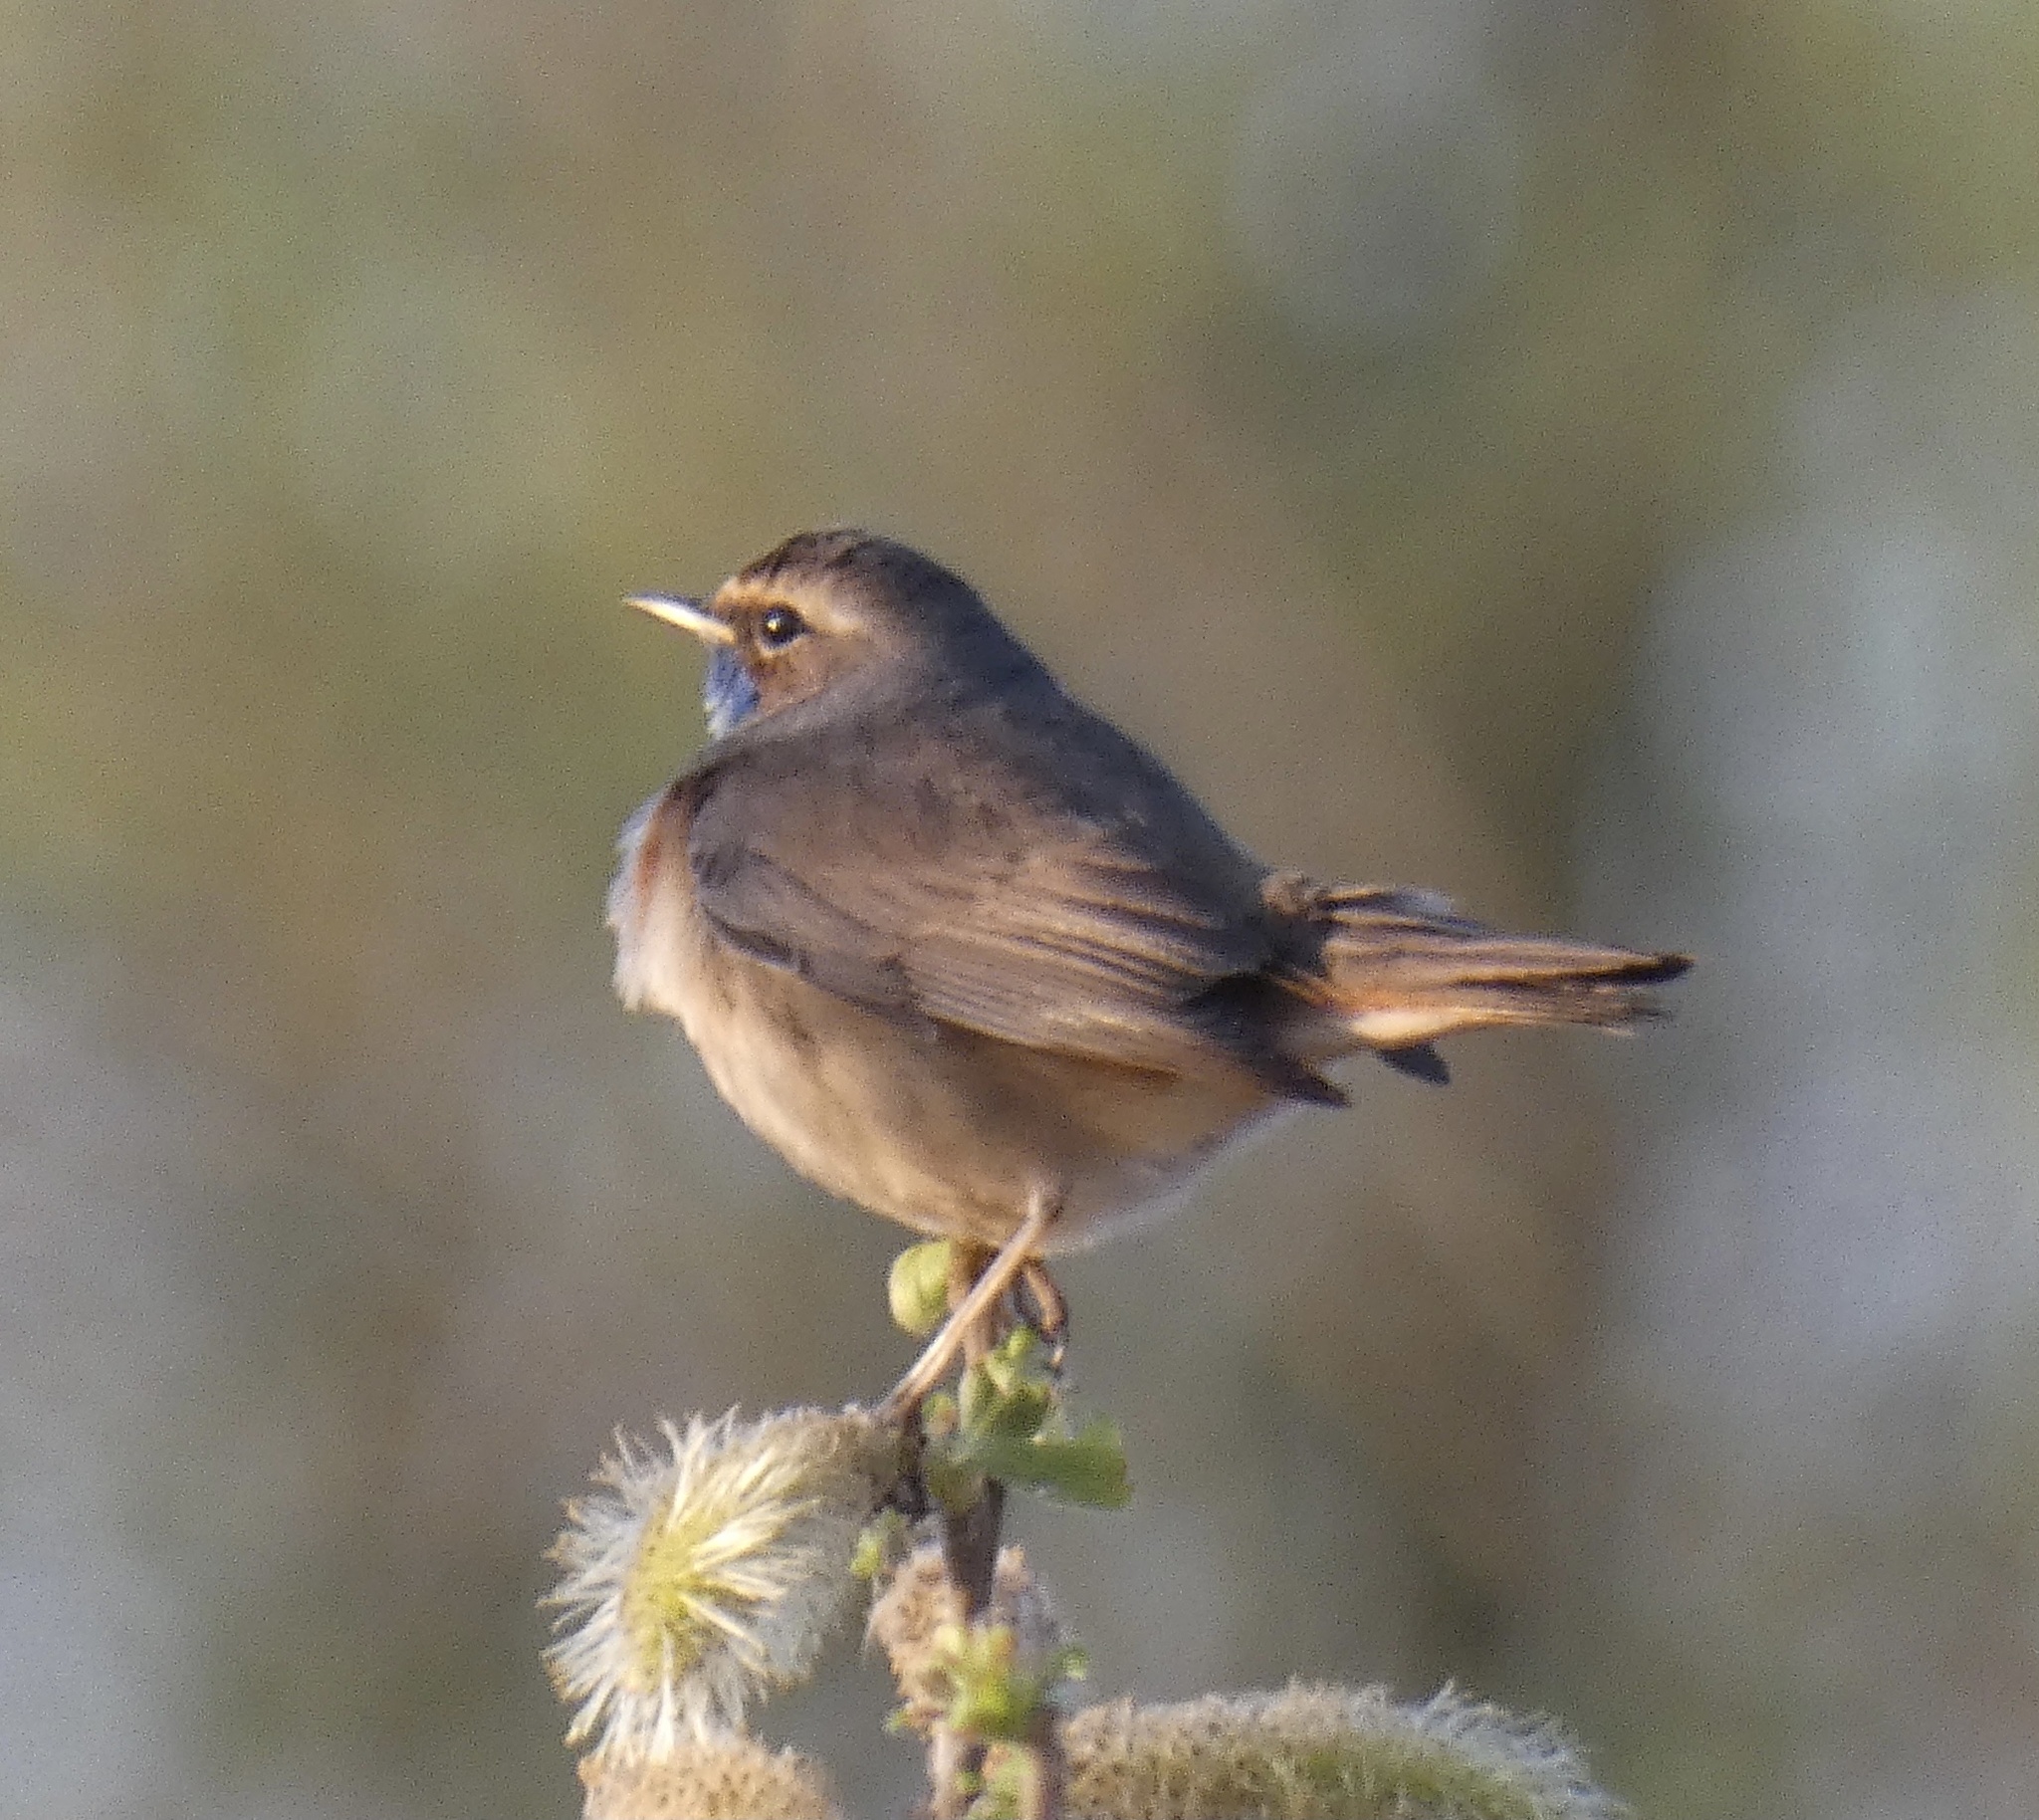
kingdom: Animalia
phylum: Chordata
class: Aves
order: Passeriformes
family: Muscicapidae
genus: Luscinia
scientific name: Luscinia svecica
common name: Bluethroat
